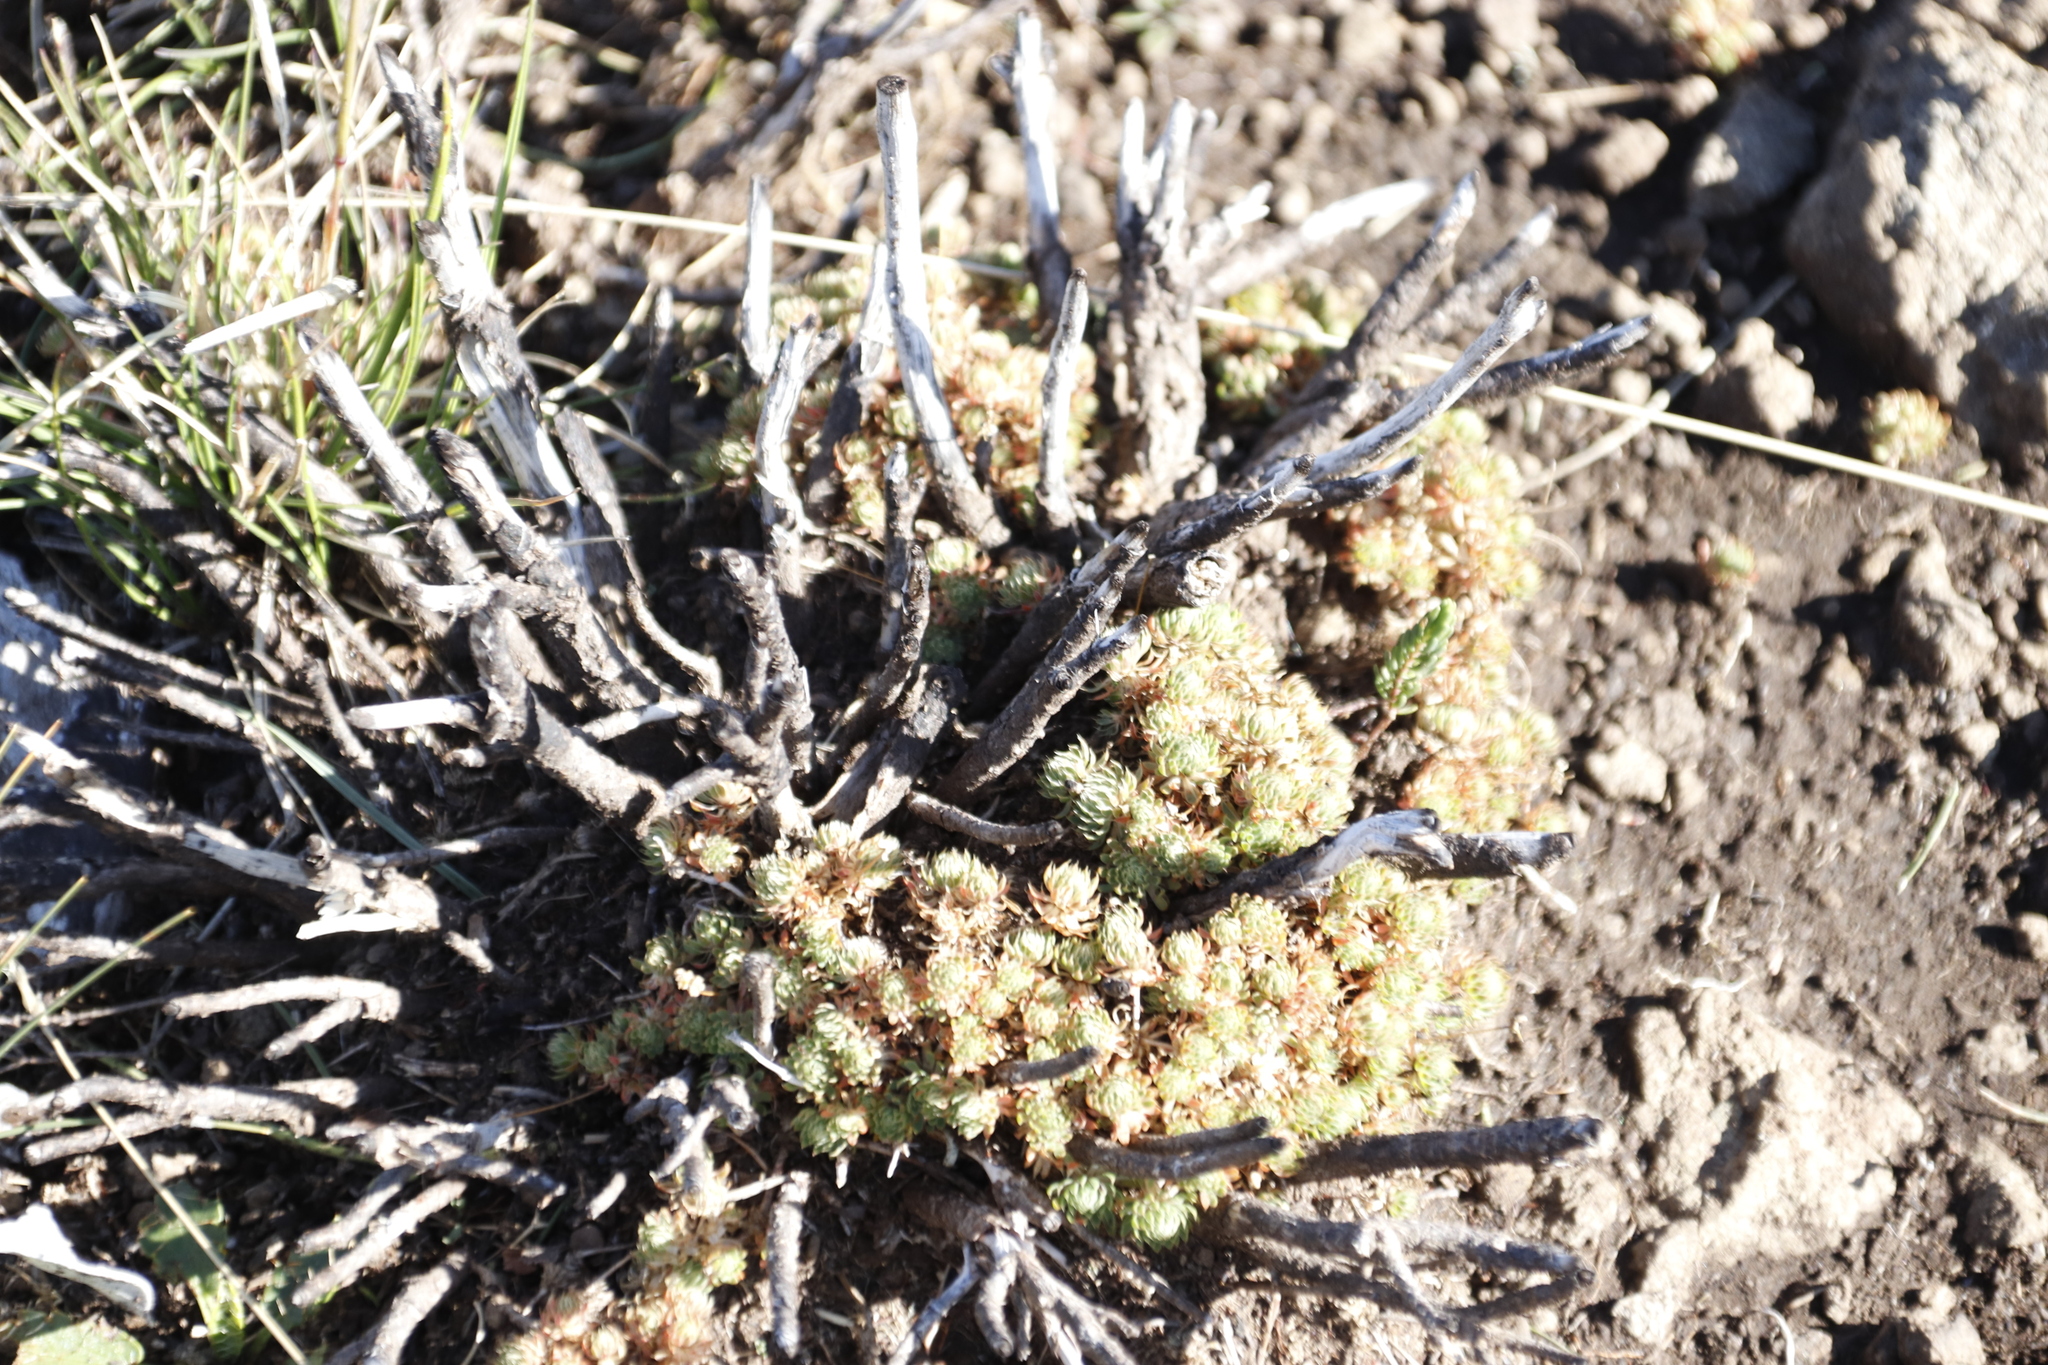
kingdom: Plantae
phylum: Tracheophyta
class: Magnoliopsida
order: Caryophyllales
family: Molluginaceae
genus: Psammotropha
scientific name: Psammotropha mucronata
